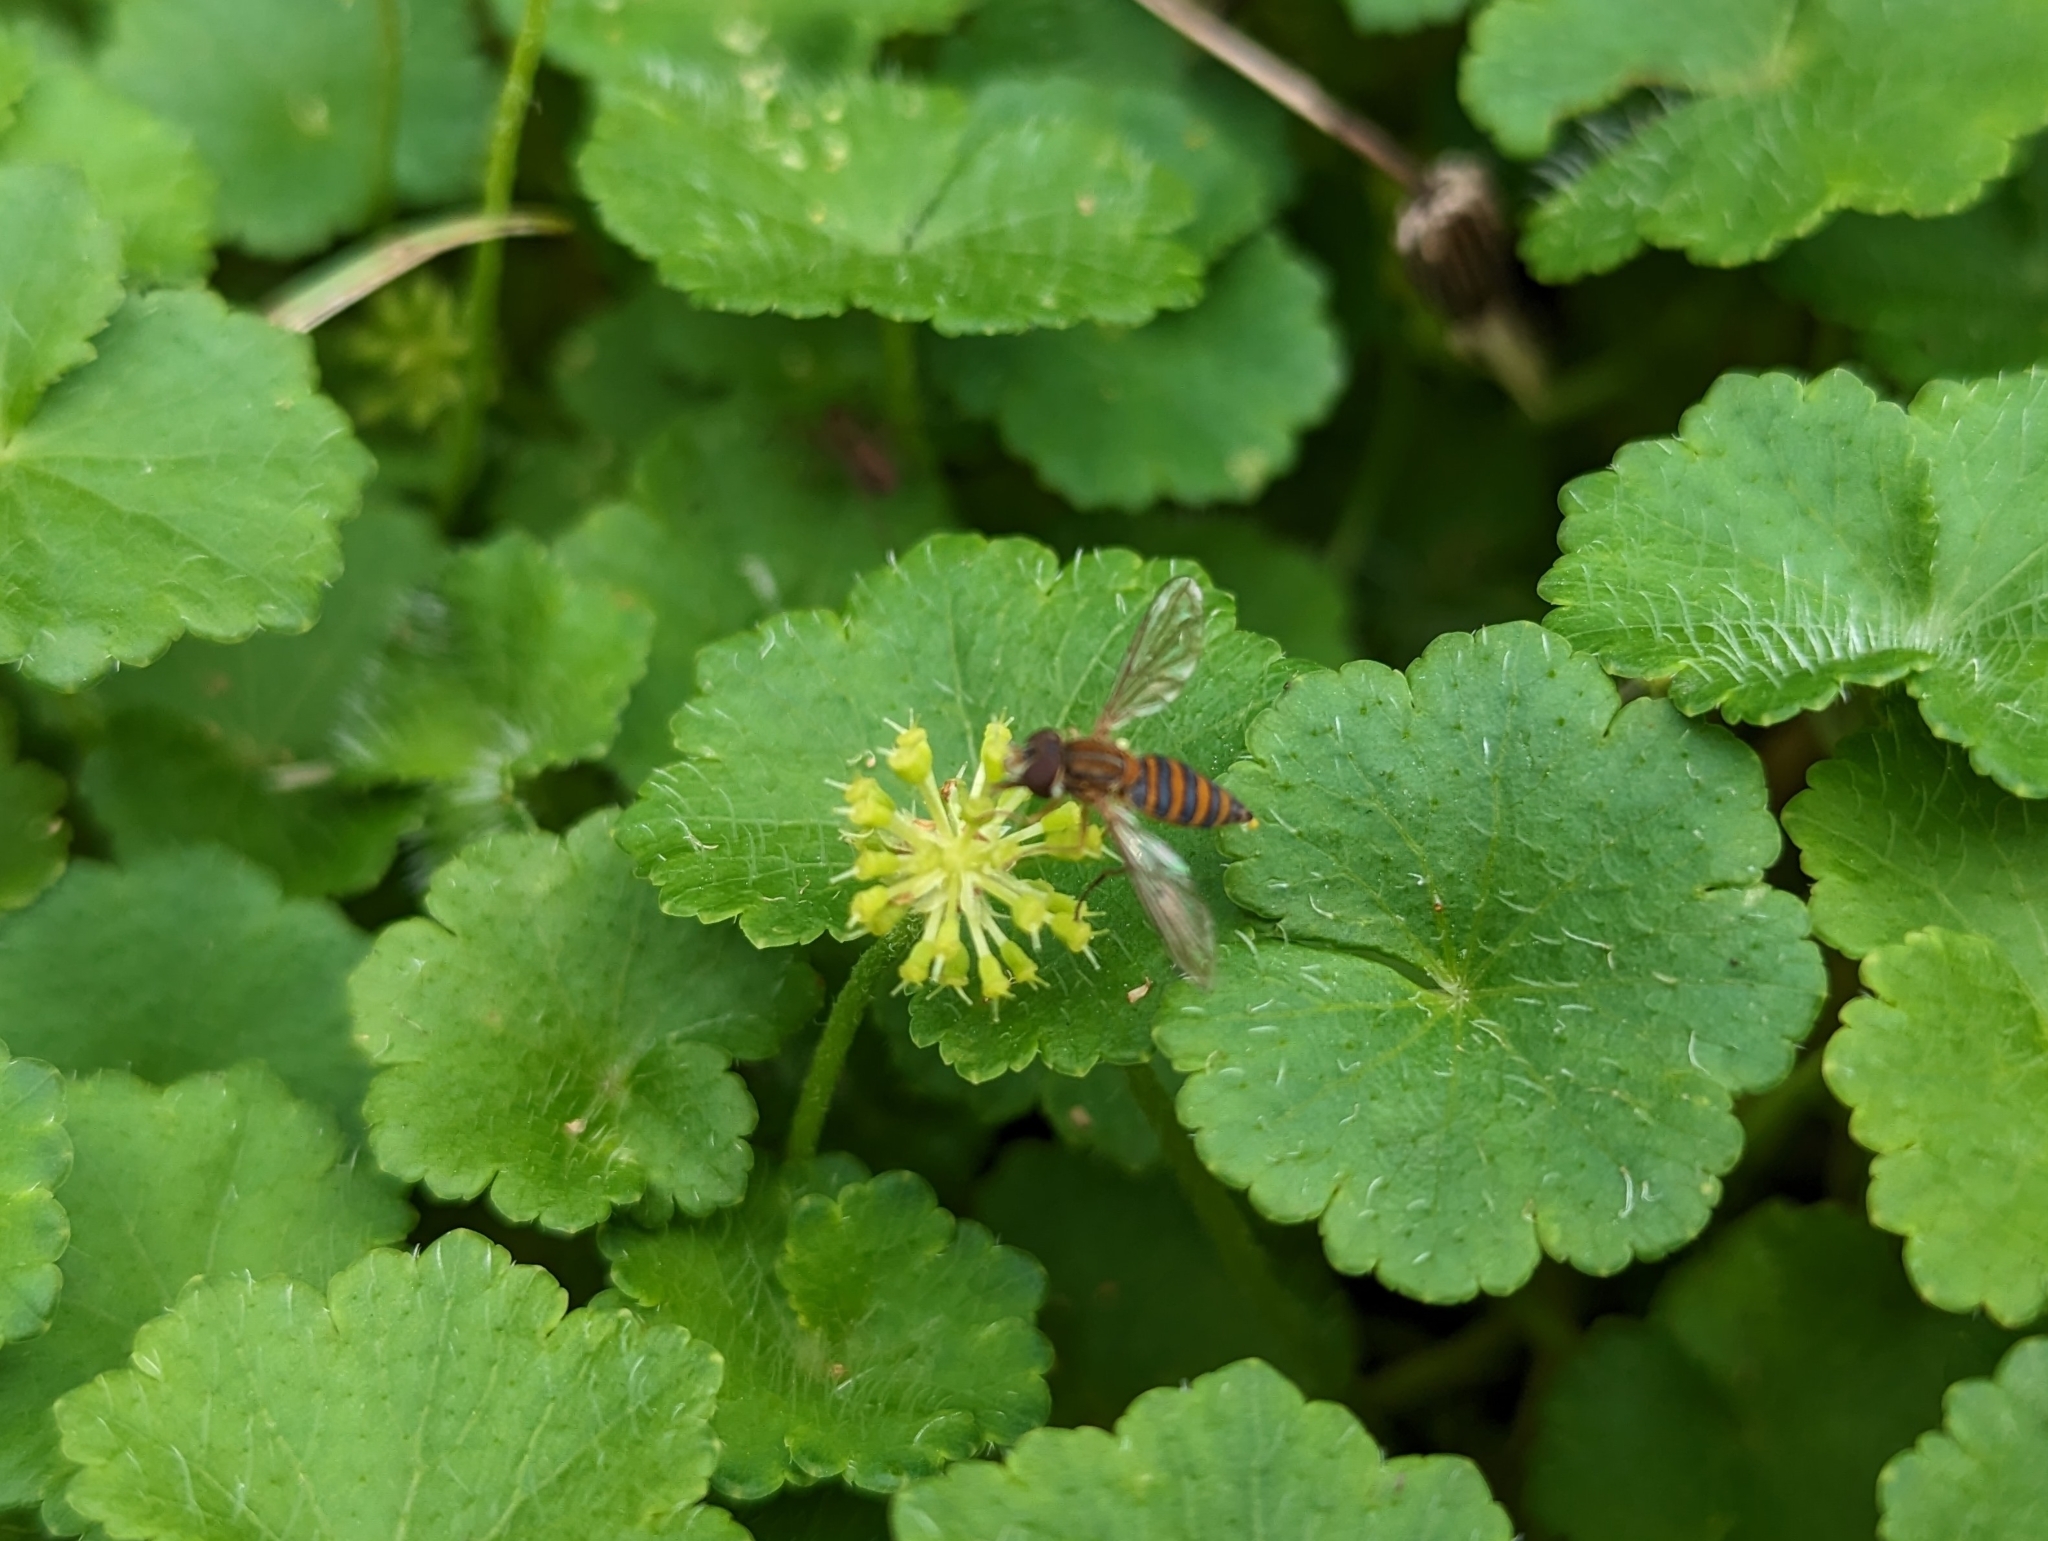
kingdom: Plantae
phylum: Tracheophyta
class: Magnoliopsida
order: Apiales
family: Araliaceae
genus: Hydrocotyle
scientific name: Hydrocotyle bonplandii
